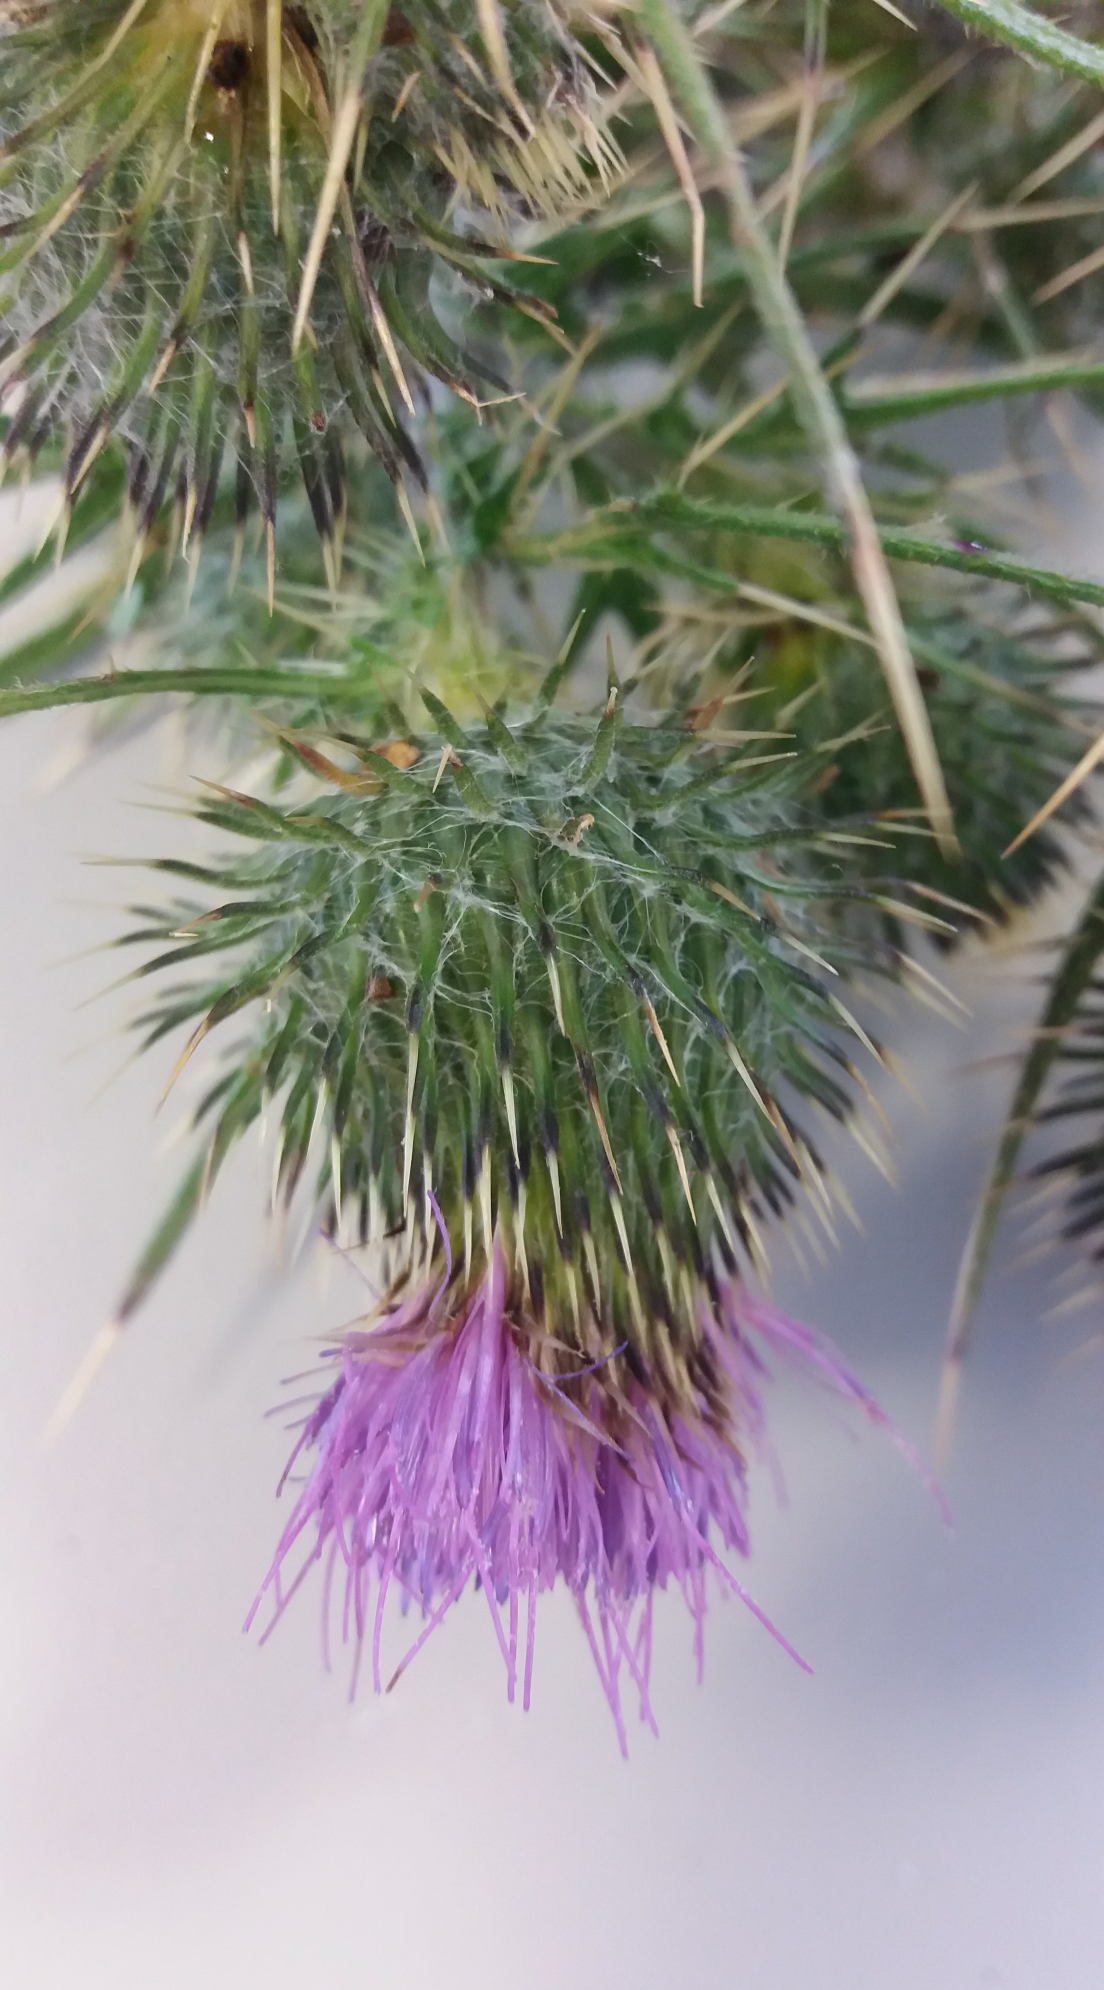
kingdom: Plantae
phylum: Tracheophyta
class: Magnoliopsida
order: Asterales
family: Asteraceae
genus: Cirsium
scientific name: Cirsium vulgare
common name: Bull thistle
